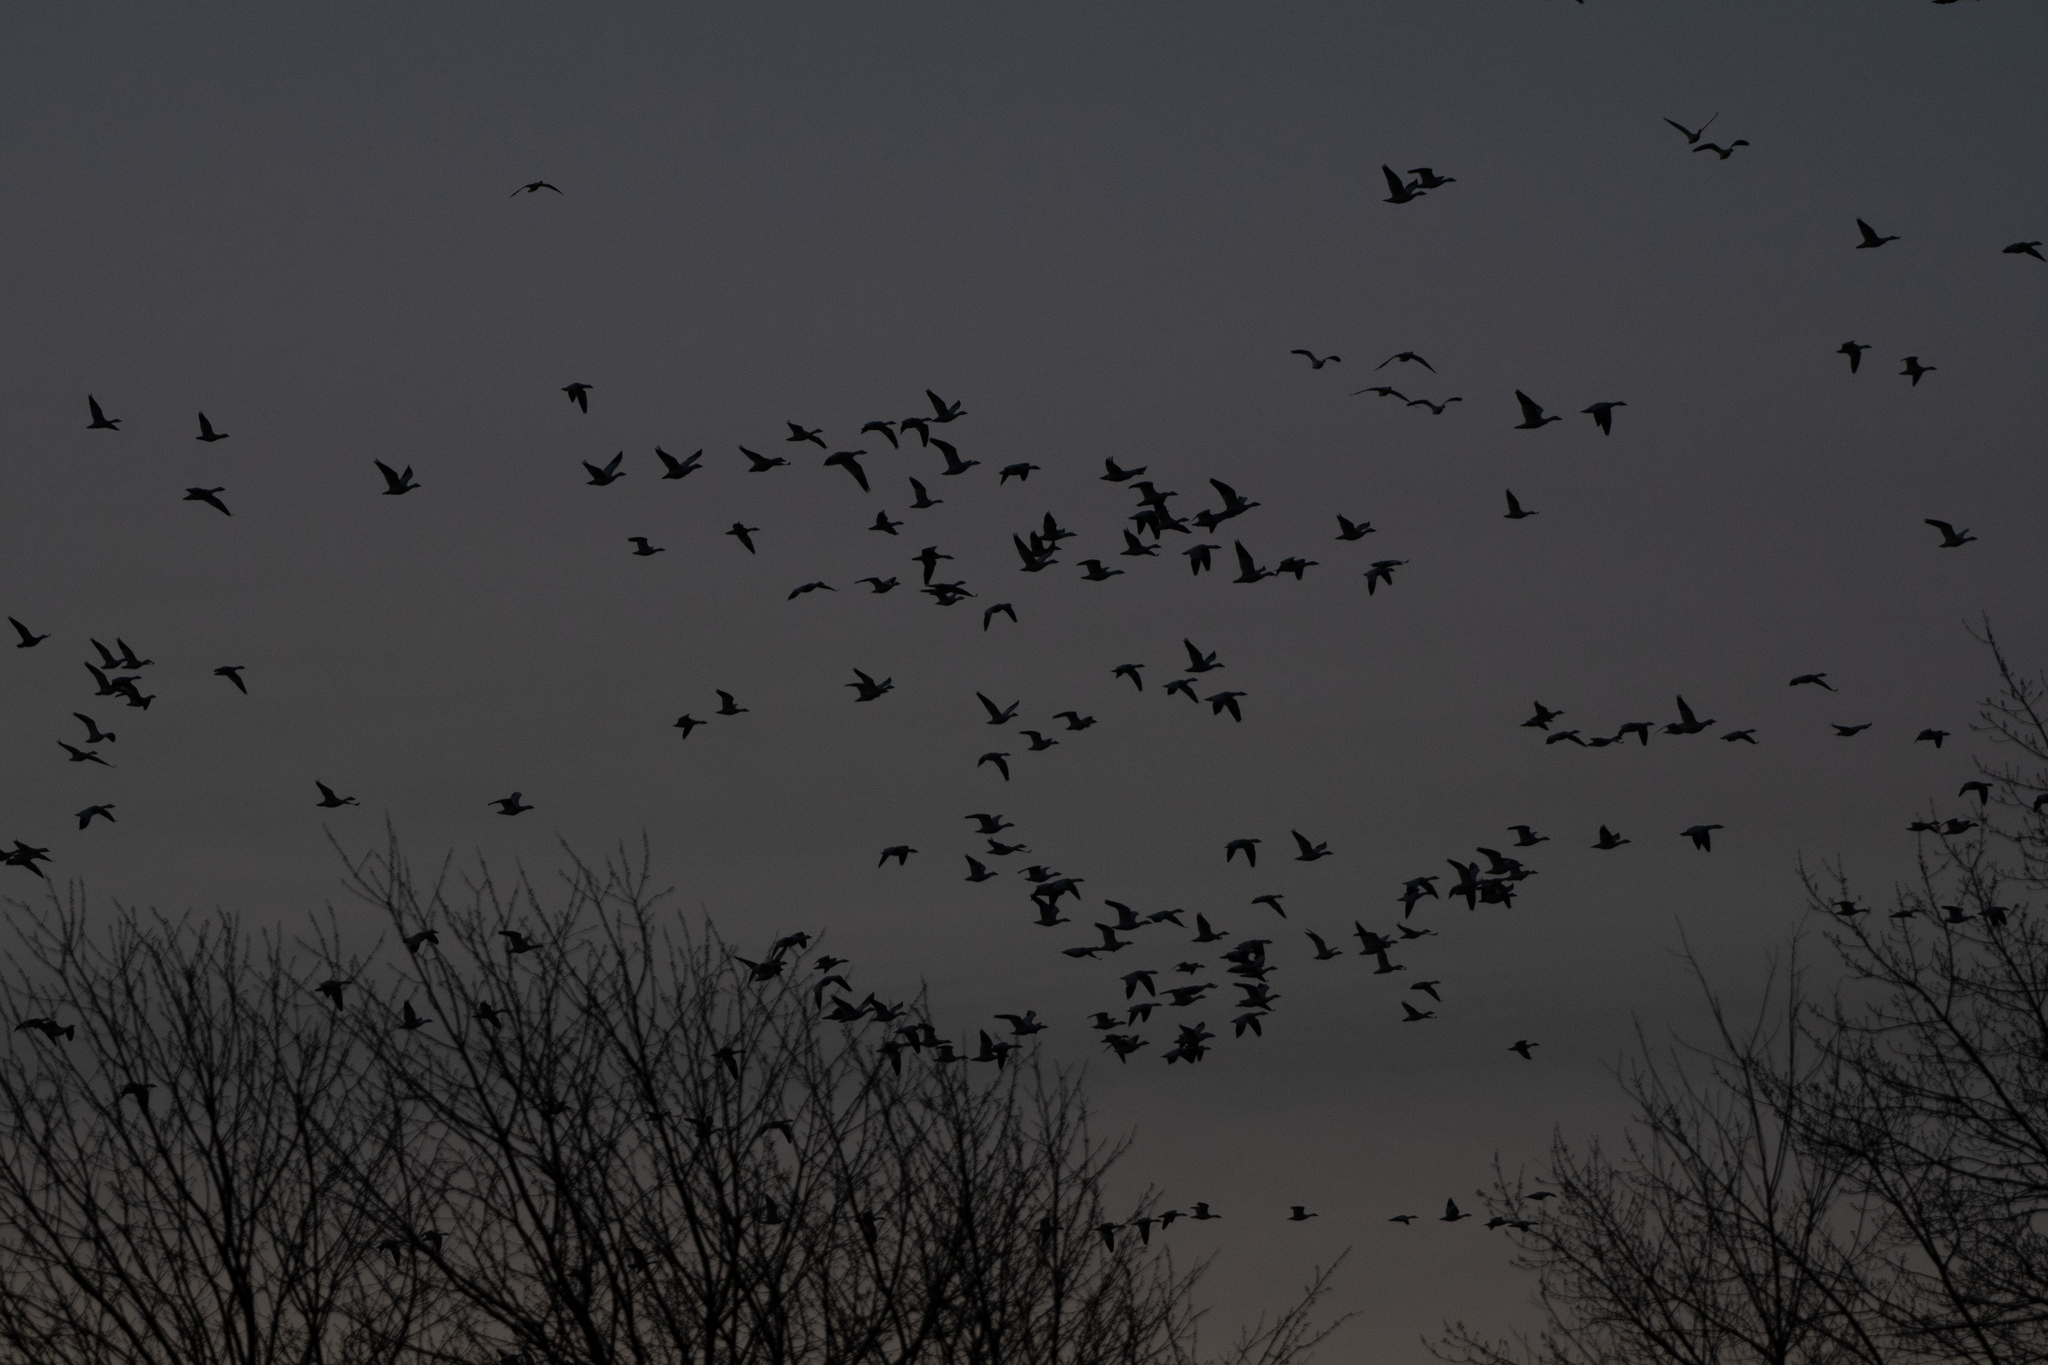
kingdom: Animalia
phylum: Chordata
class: Aves
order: Anseriformes
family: Anatidae
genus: Anser
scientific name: Anser caerulescens
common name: Snow goose
